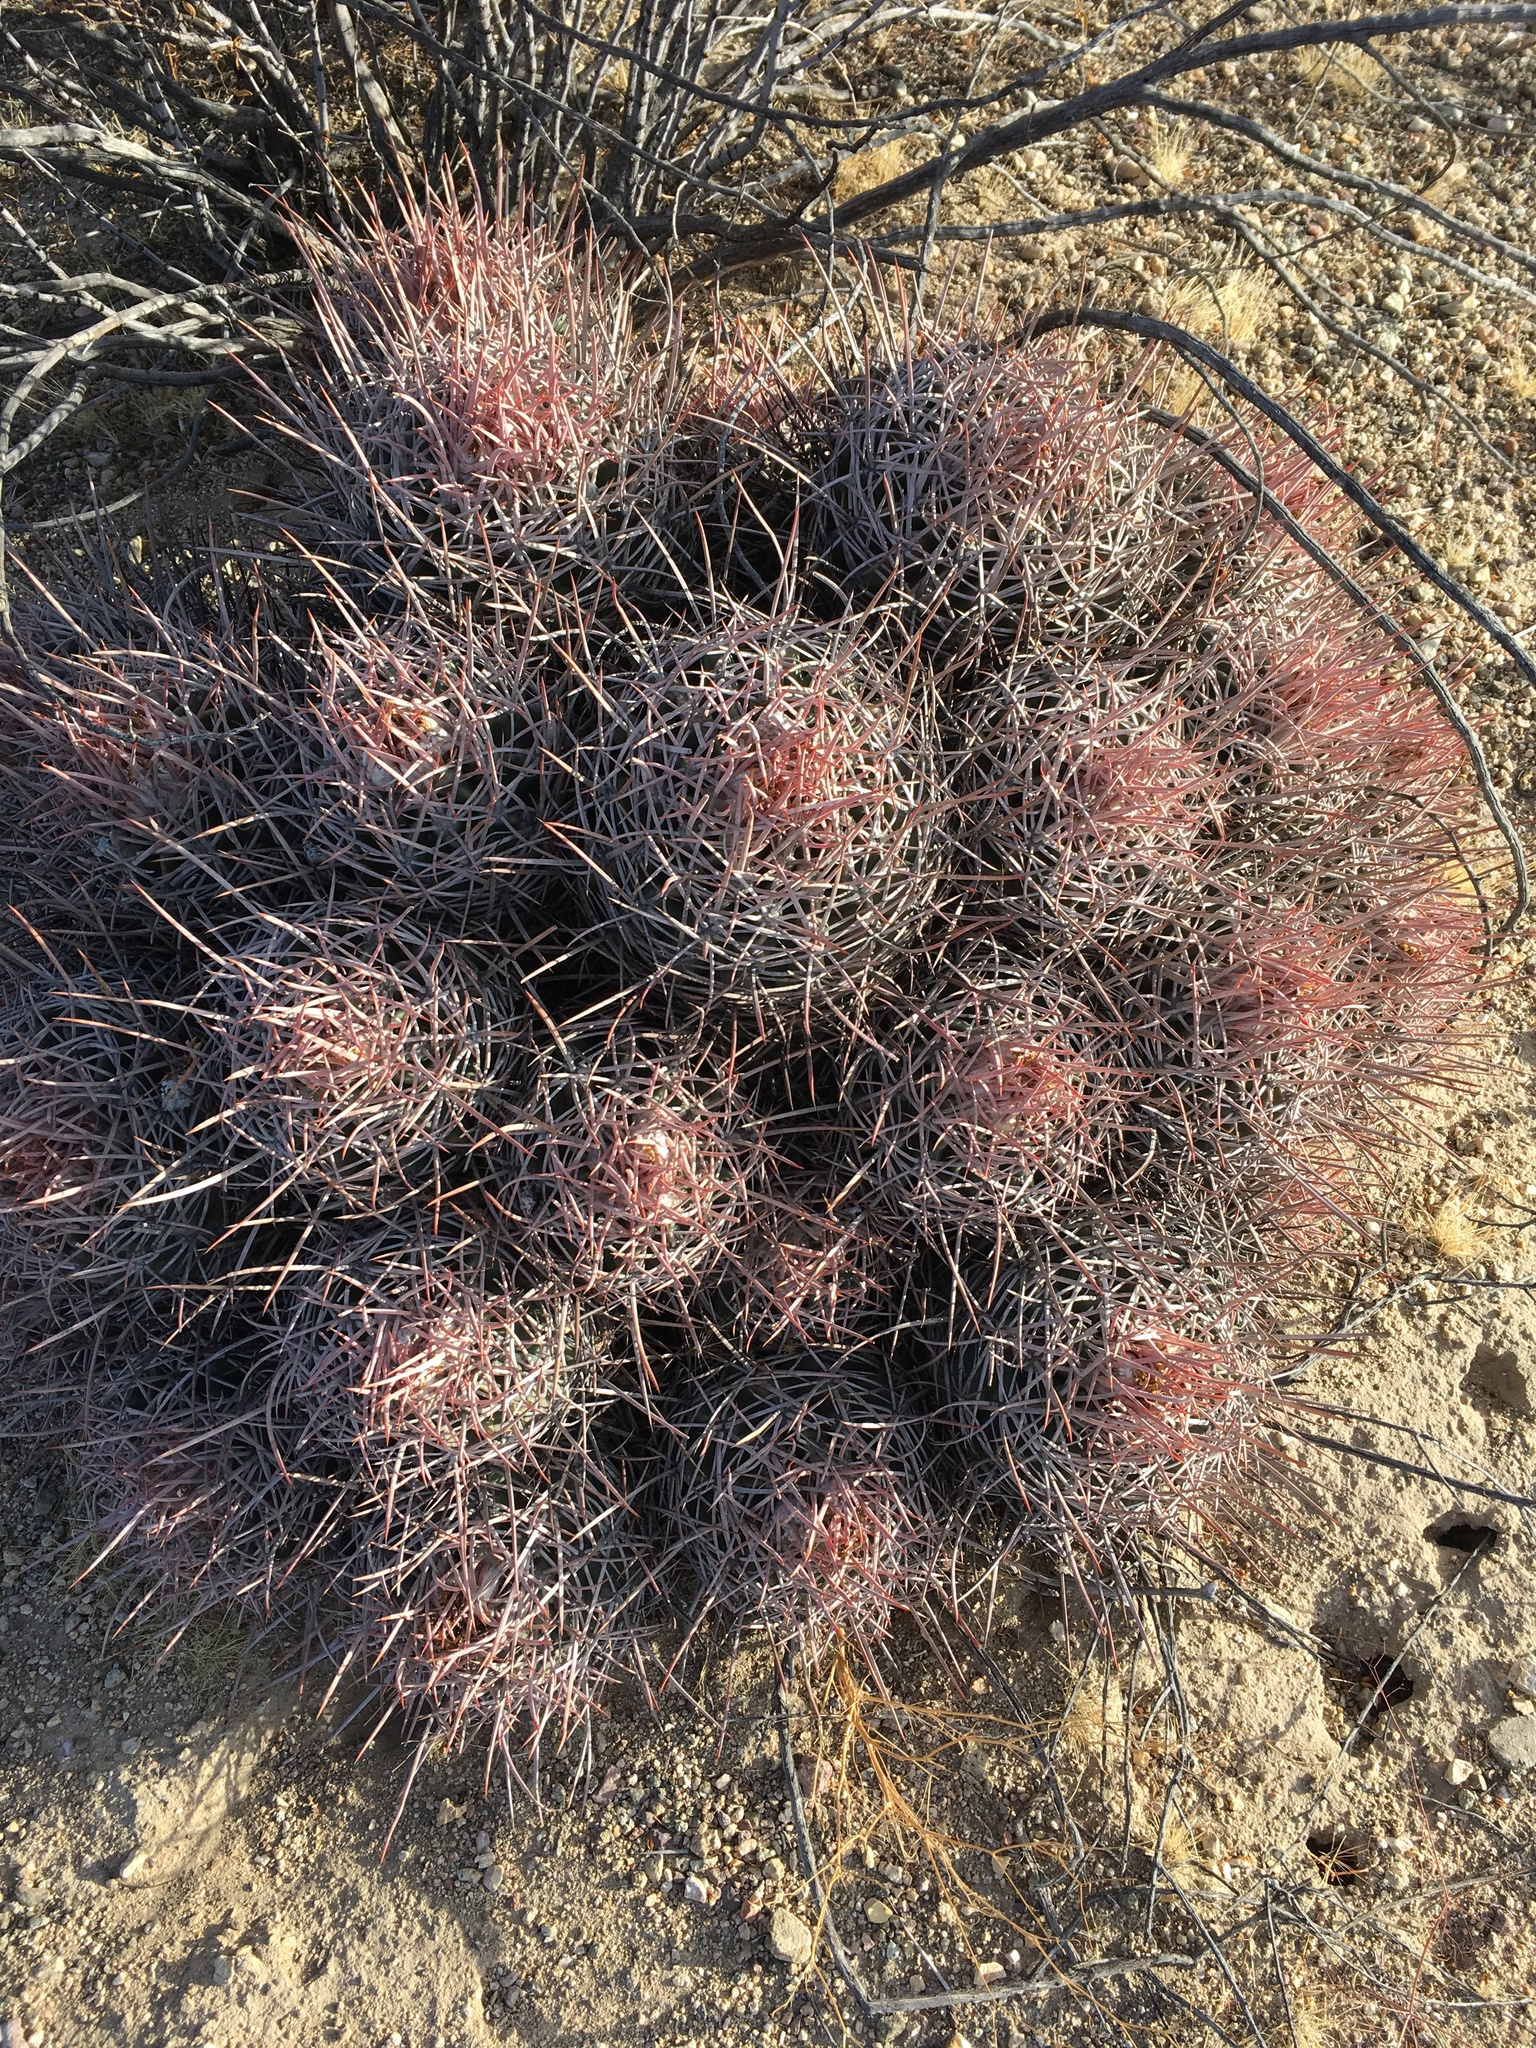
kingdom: Plantae
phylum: Tracheophyta
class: Magnoliopsida
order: Caryophyllales
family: Cactaceae
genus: Echinocactus
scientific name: Echinocactus polycephalus
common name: Cottontop cactus
